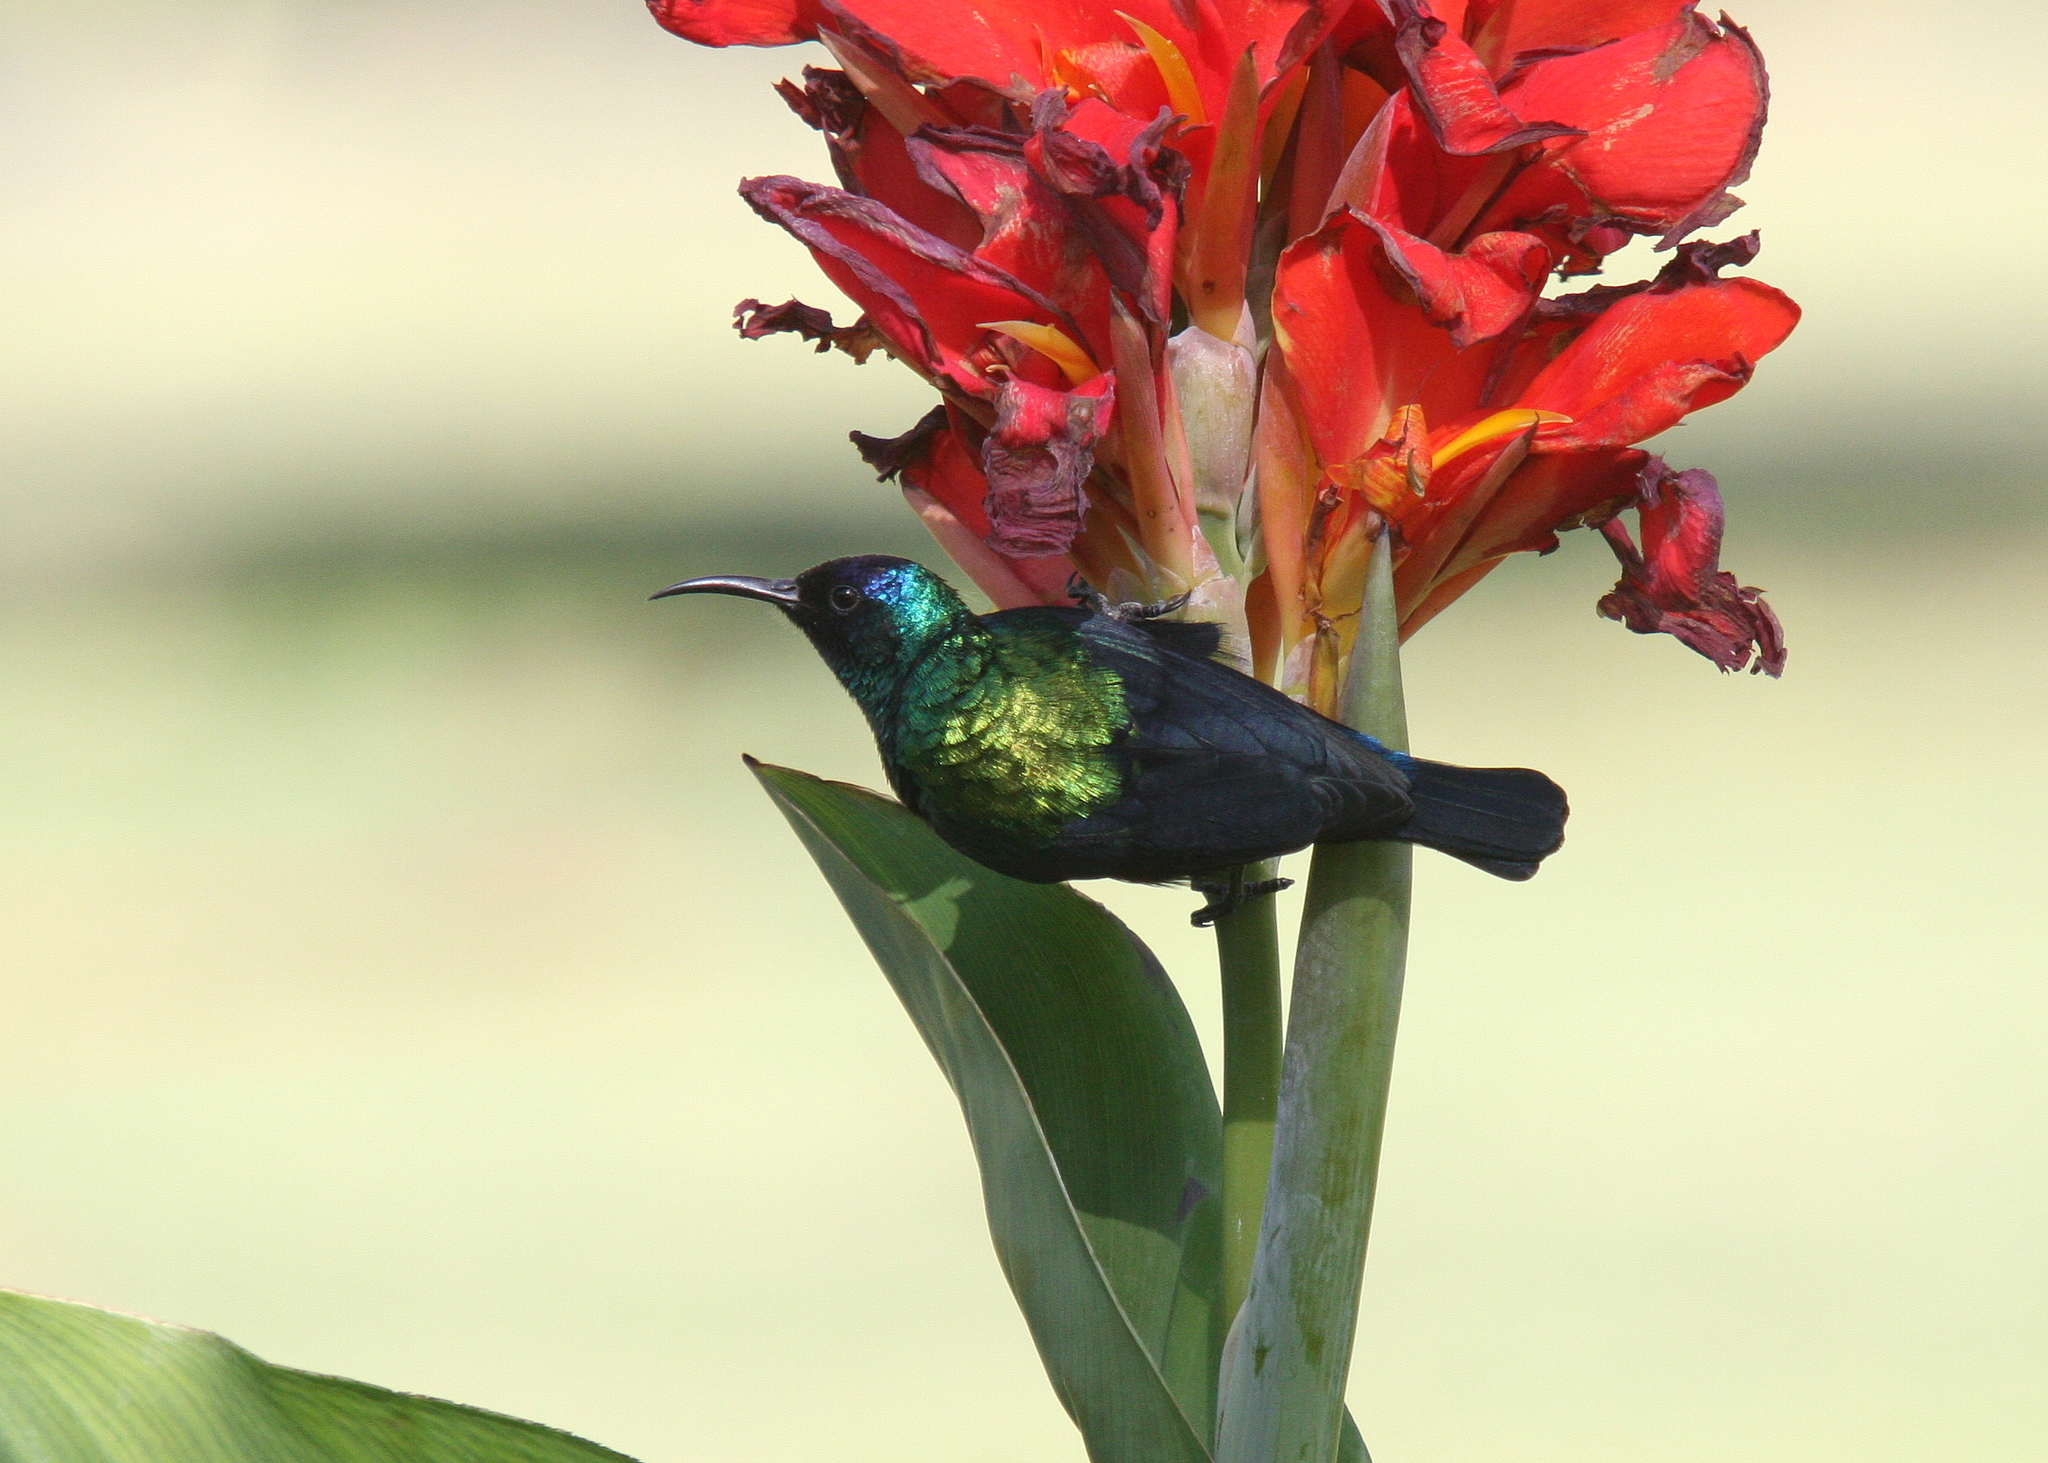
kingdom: Animalia
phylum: Chordata
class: Aves
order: Passeriformes
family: Nectariniidae
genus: Cinnyris
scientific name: Cinnyris habessinicus
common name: Shining sunbird
